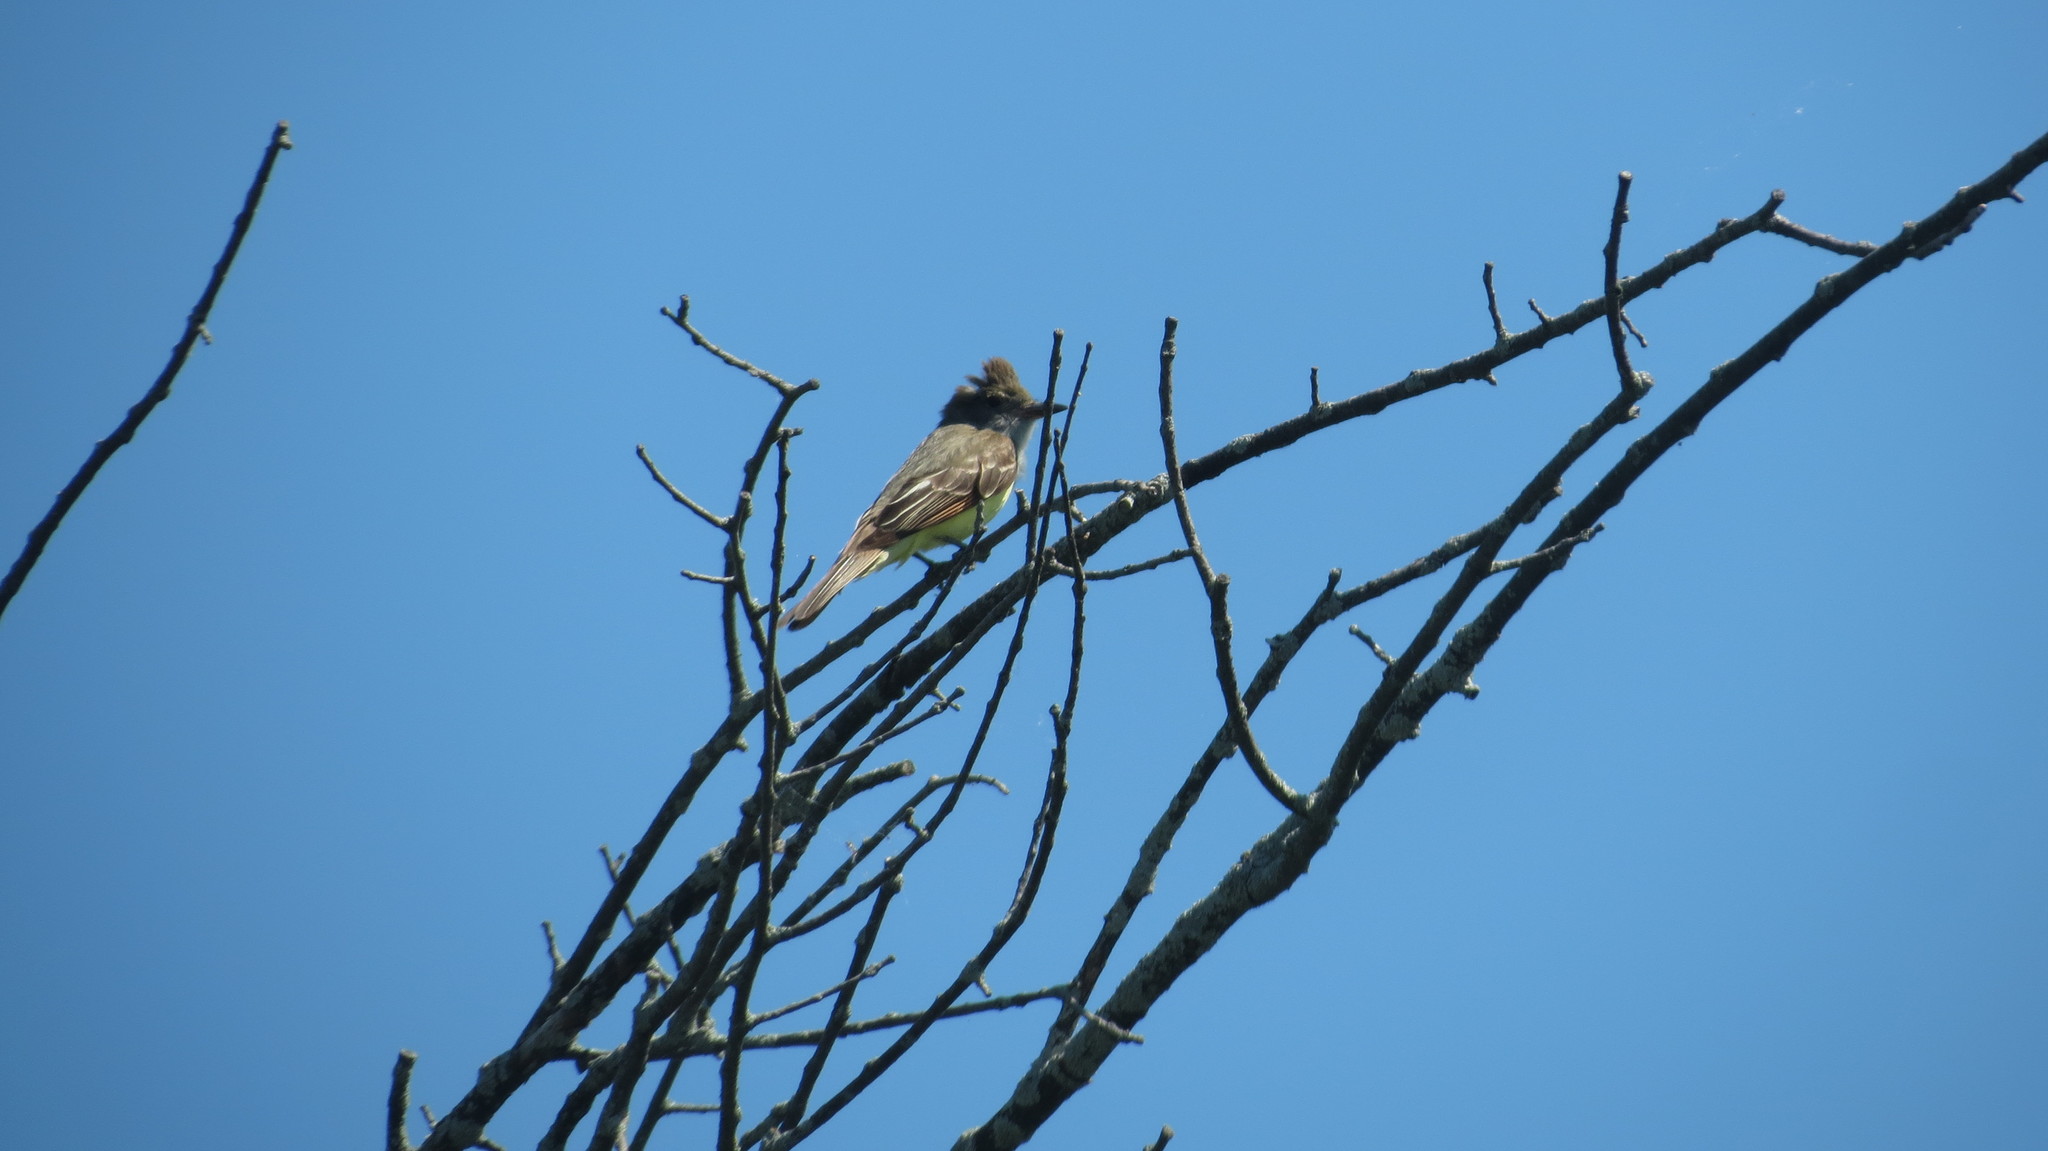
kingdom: Animalia
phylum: Chordata
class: Aves
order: Passeriformes
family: Tyrannidae
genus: Myiarchus
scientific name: Myiarchus crinitus
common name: Great crested flycatcher
